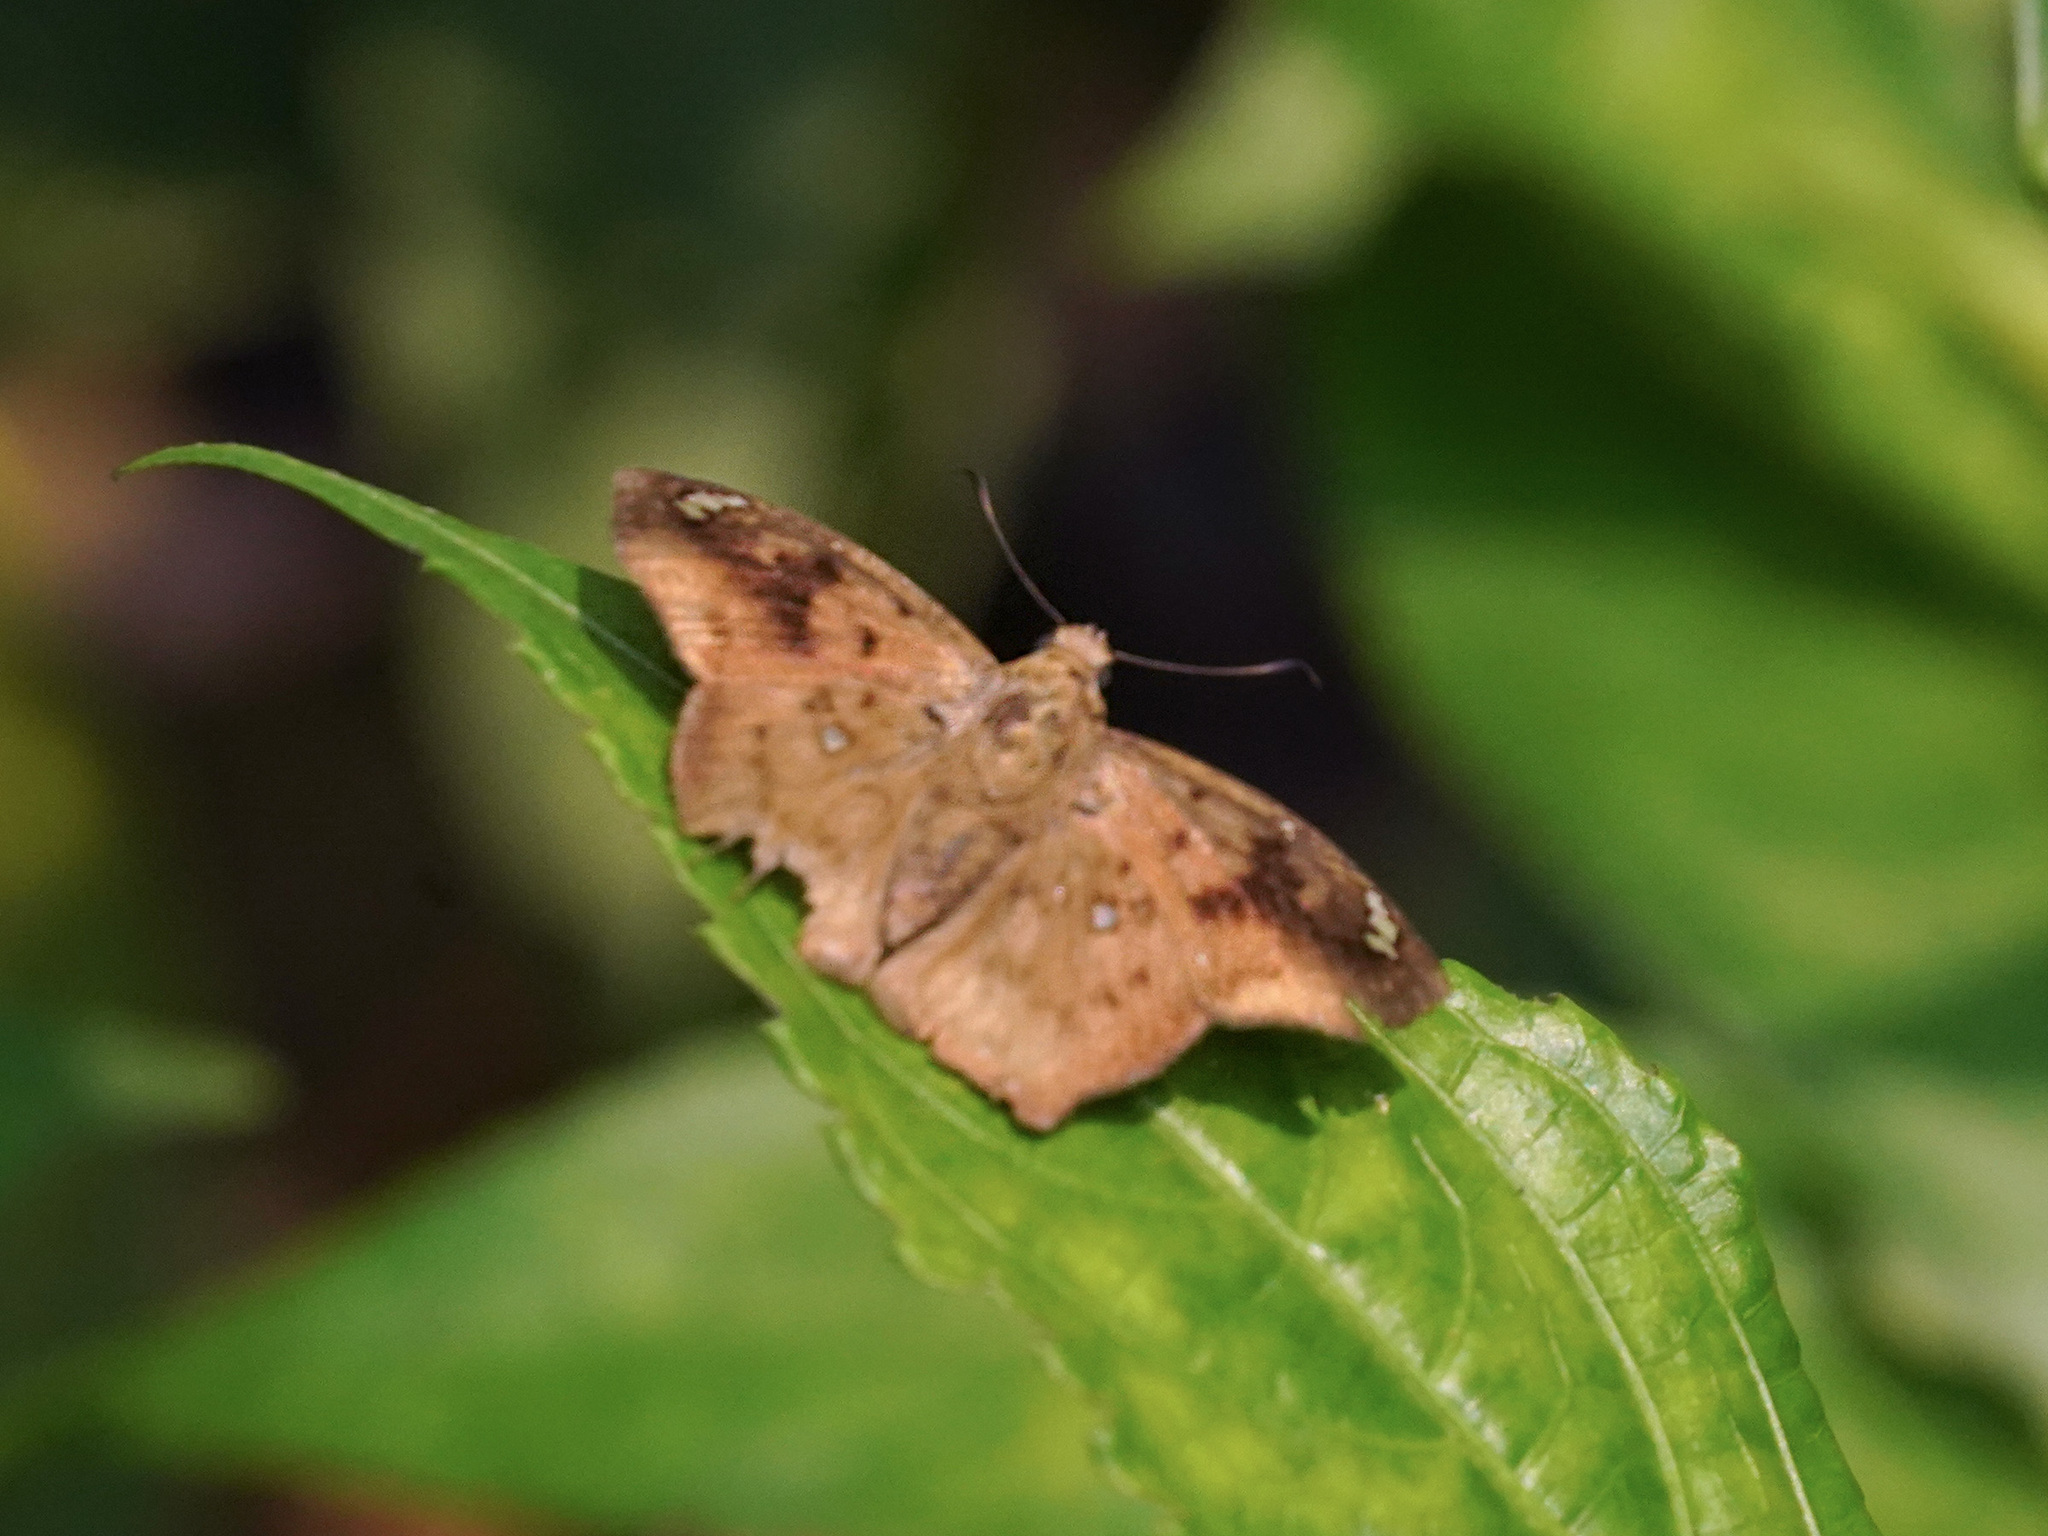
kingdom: Animalia
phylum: Arthropoda
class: Insecta
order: Lepidoptera
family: Hesperiidae
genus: Tapena
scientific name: Tapena thwaitesi
